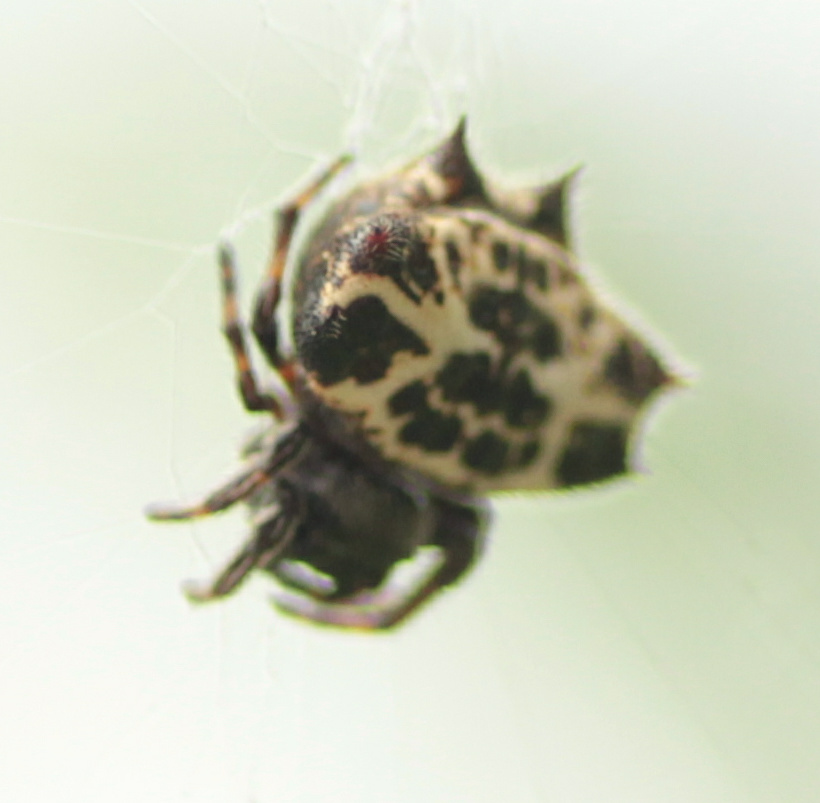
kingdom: Animalia
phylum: Arthropoda
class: Arachnida
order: Araneae
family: Araneidae
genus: Gasteracantha
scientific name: Gasteracantha cancriformis
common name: Orb weavers
